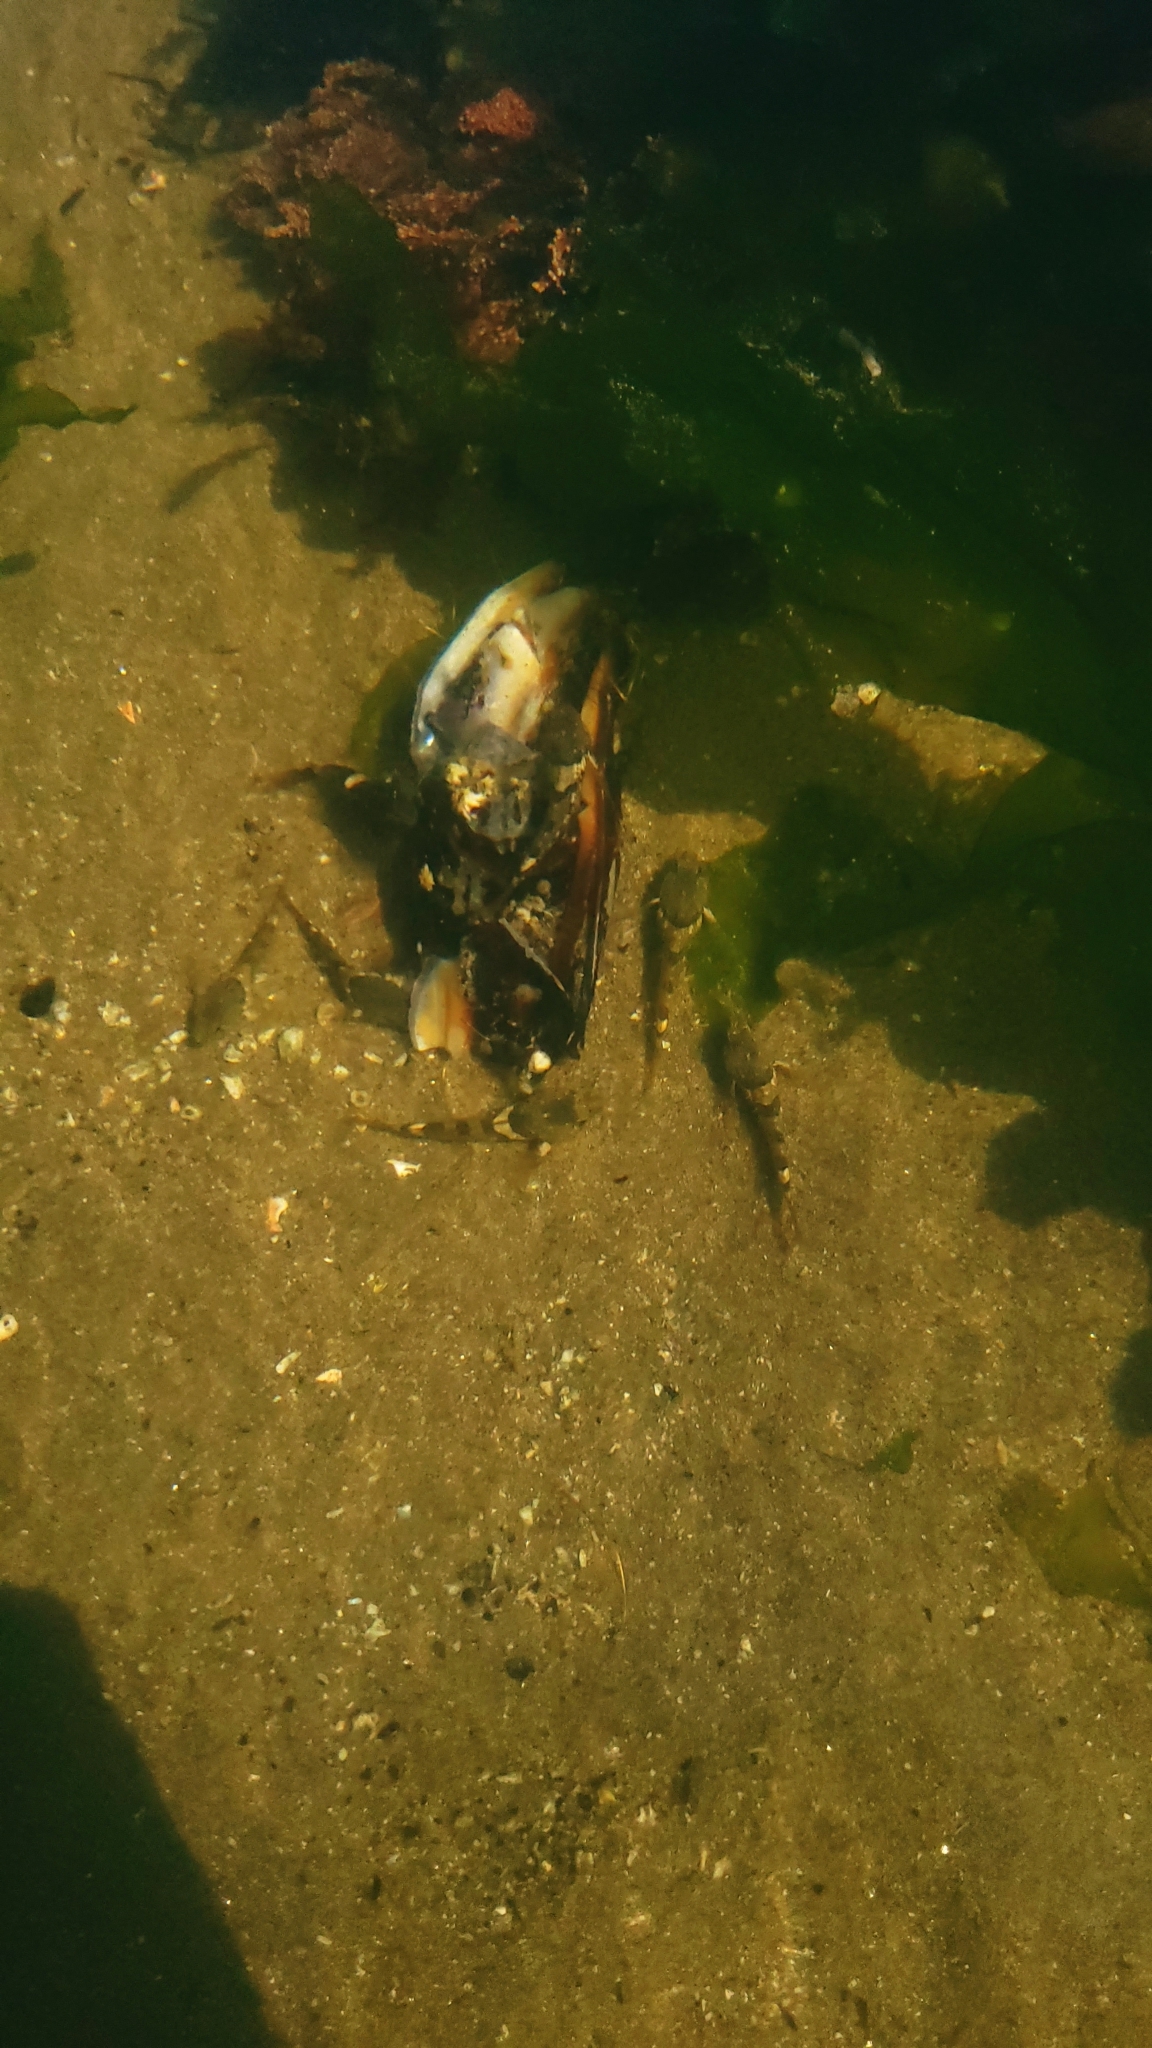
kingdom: Animalia
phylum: Chordata
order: Scorpaeniformes
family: Cottidae
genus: Oligocottus
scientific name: Oligocottus maculosus
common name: Tidepool sculpin
